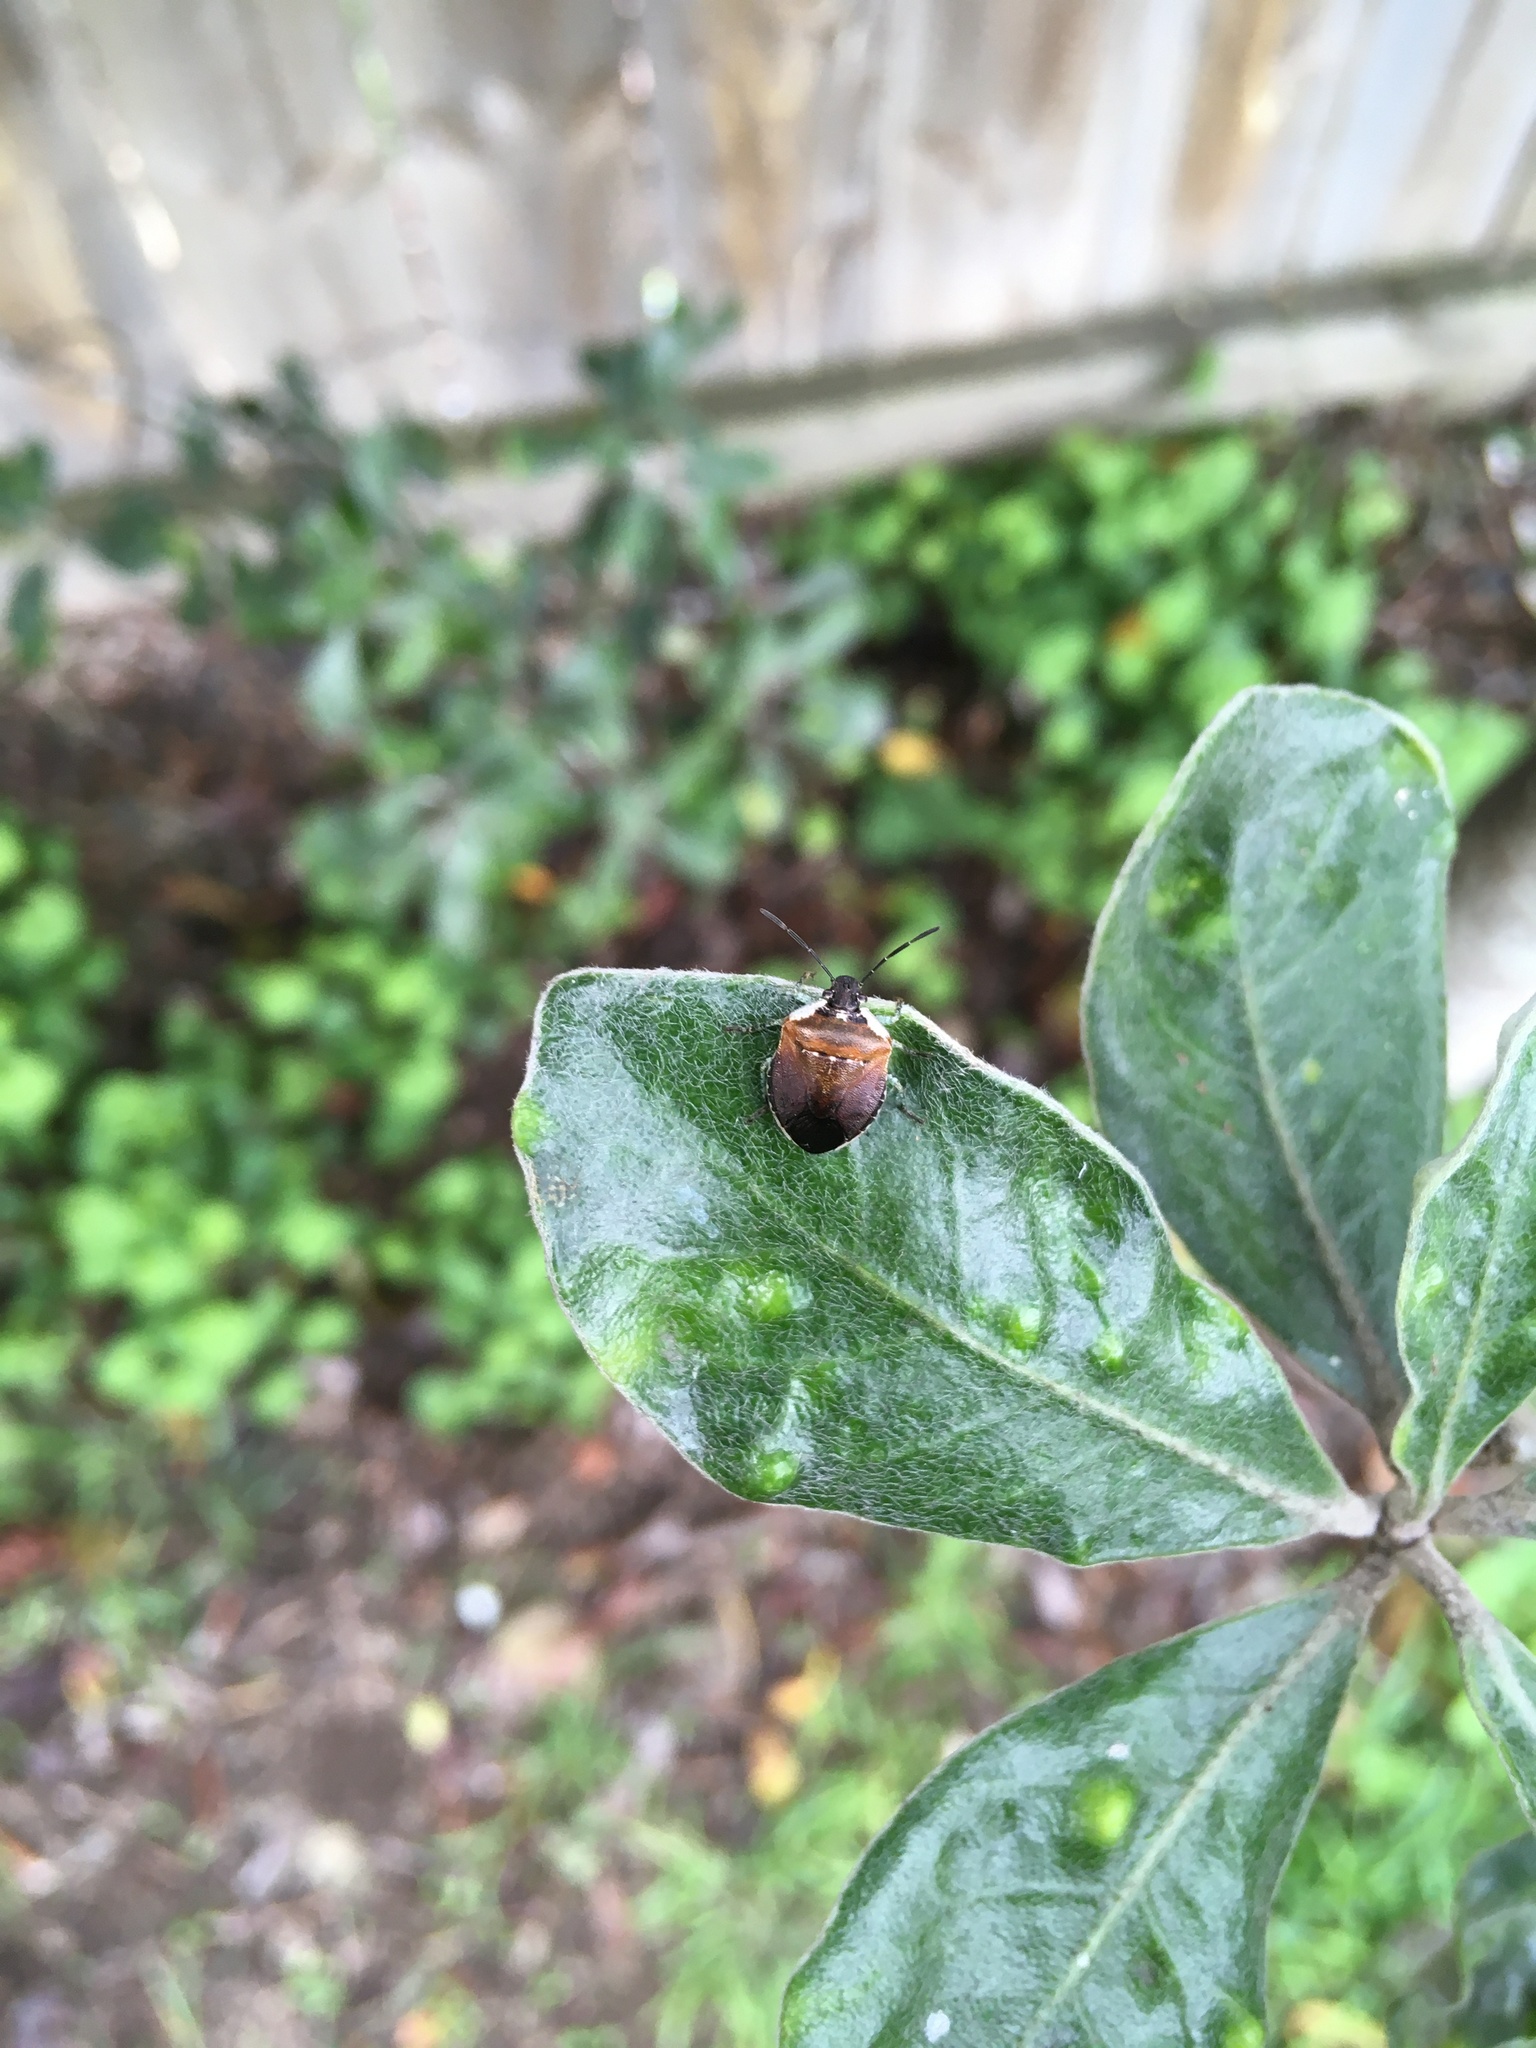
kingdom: Animalia
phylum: Arthropoda
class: Insecta
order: Hemiptera
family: Pentatomidae
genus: Monteithiella
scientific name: Monteithiella
